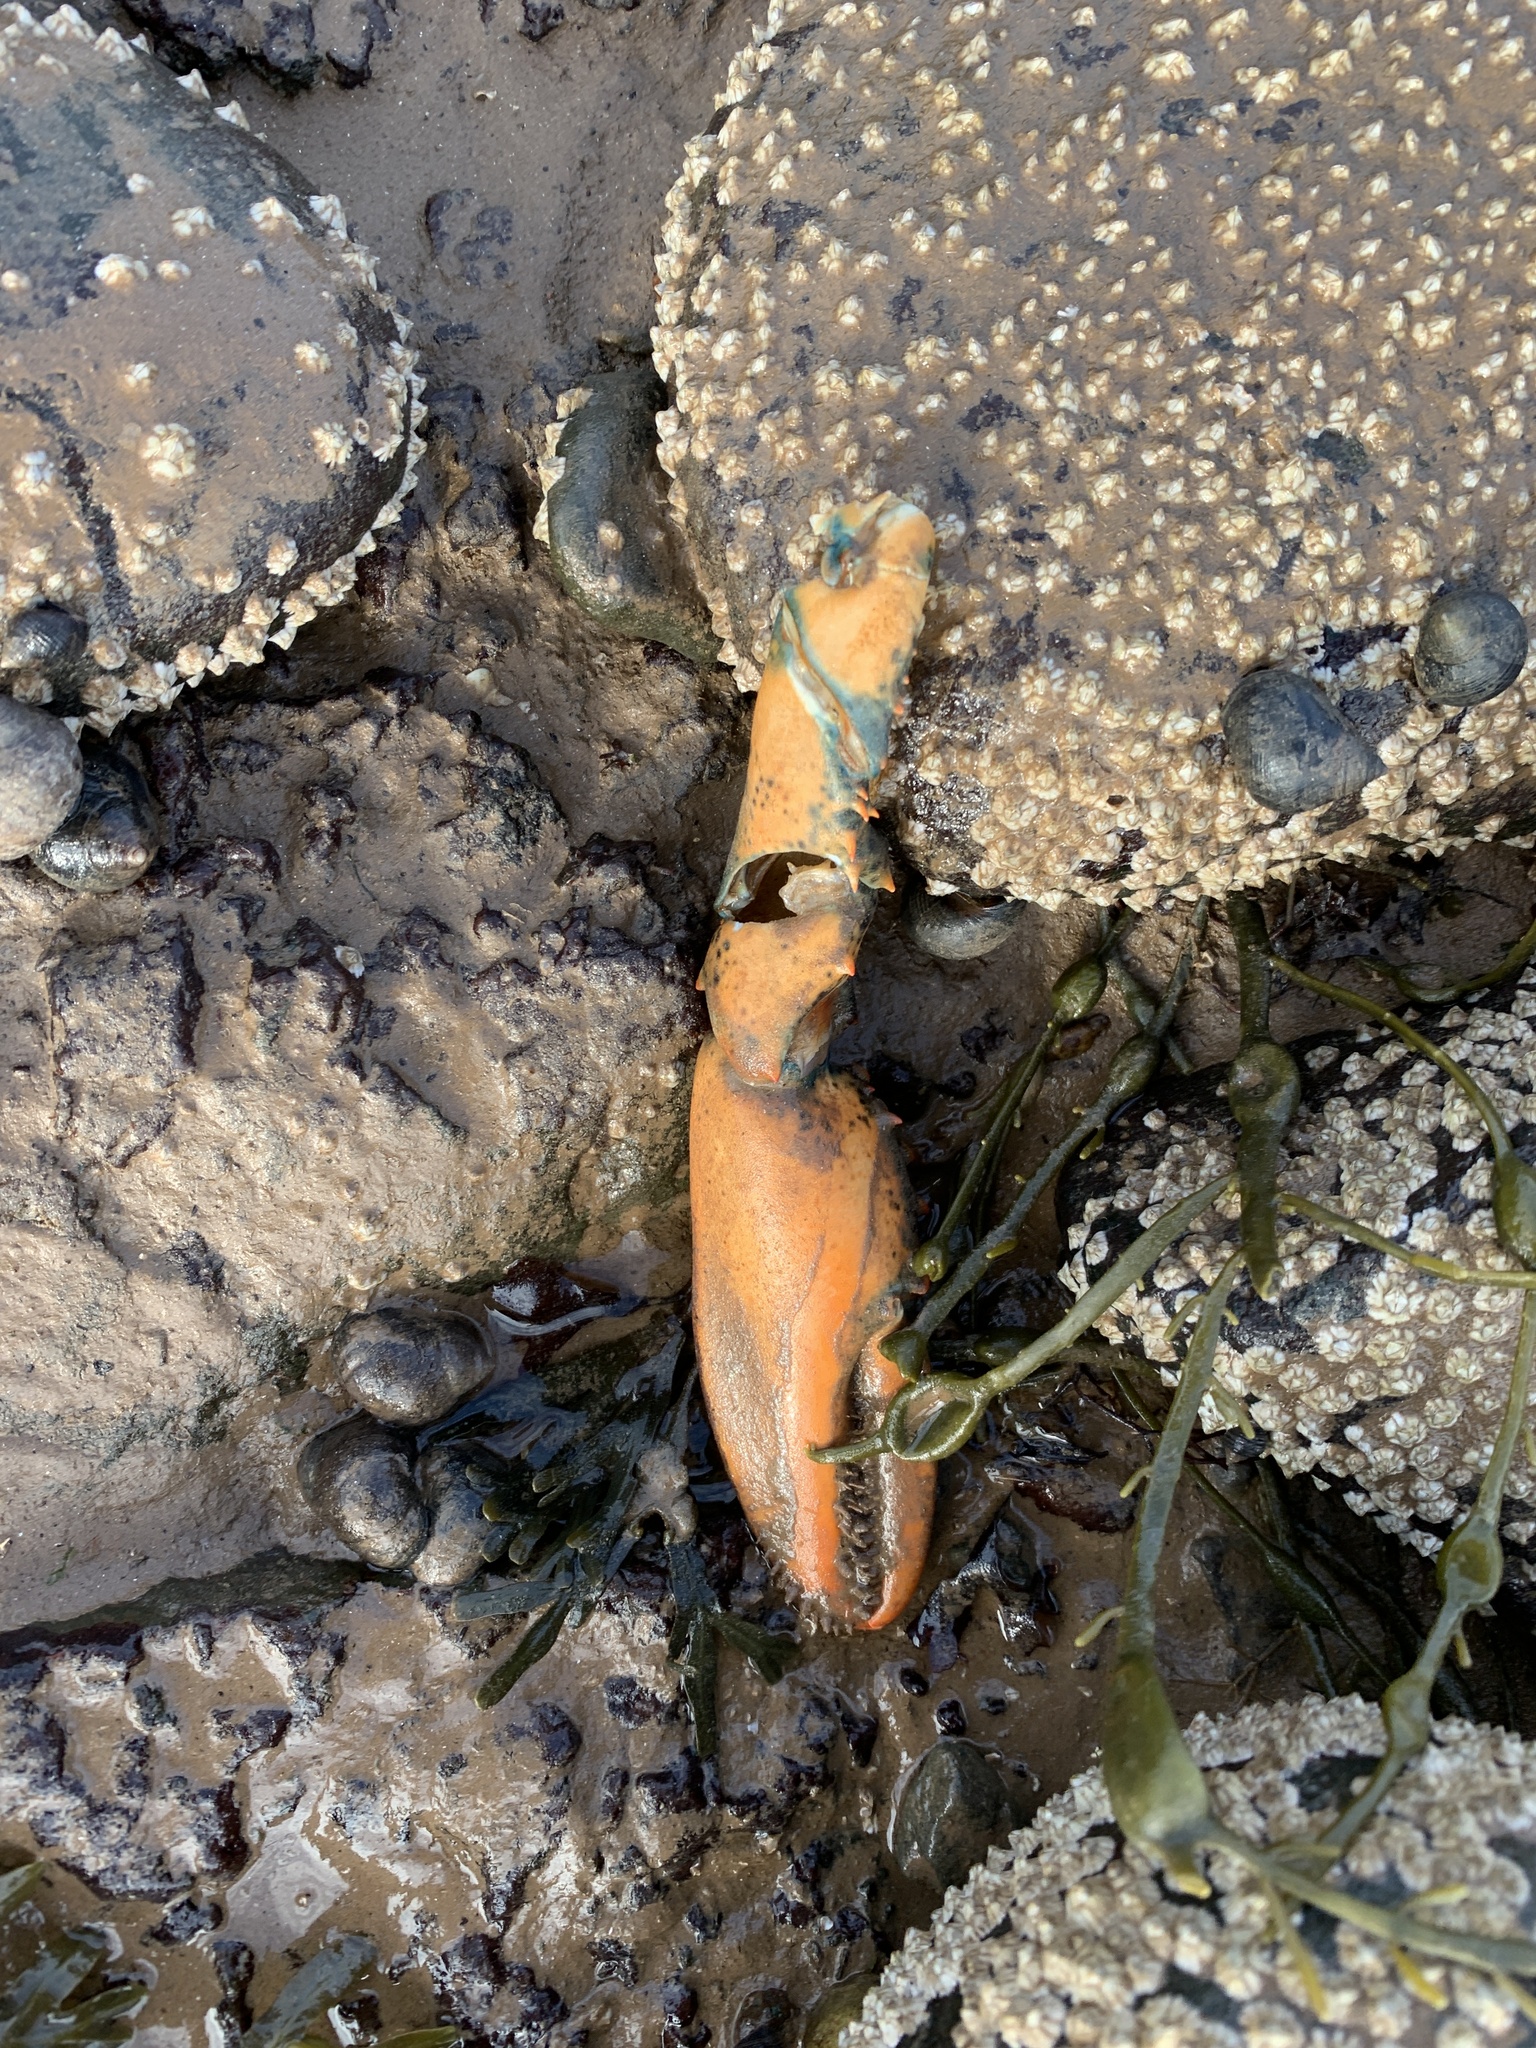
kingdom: Animalia
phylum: Arthropoda
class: Malacostraca
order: Decapoda
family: Nephropidae
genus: Homarus
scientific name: Homarus americanus
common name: American lobster
